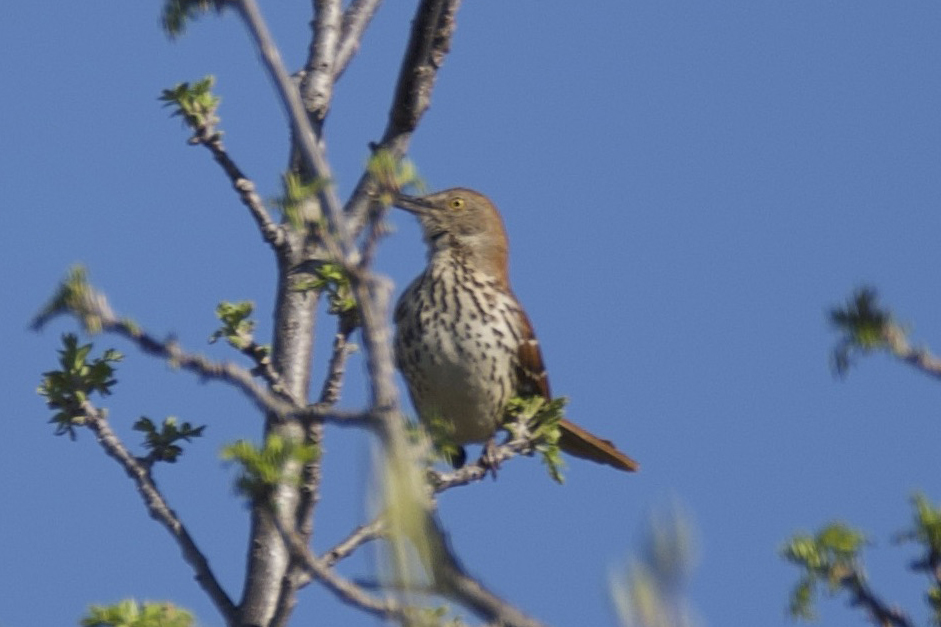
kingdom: Animalia
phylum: Chordata
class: Aves
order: Passeriformes
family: Mimidae
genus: Toxostoma
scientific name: Toxostoma rufum
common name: Brown thrasher
